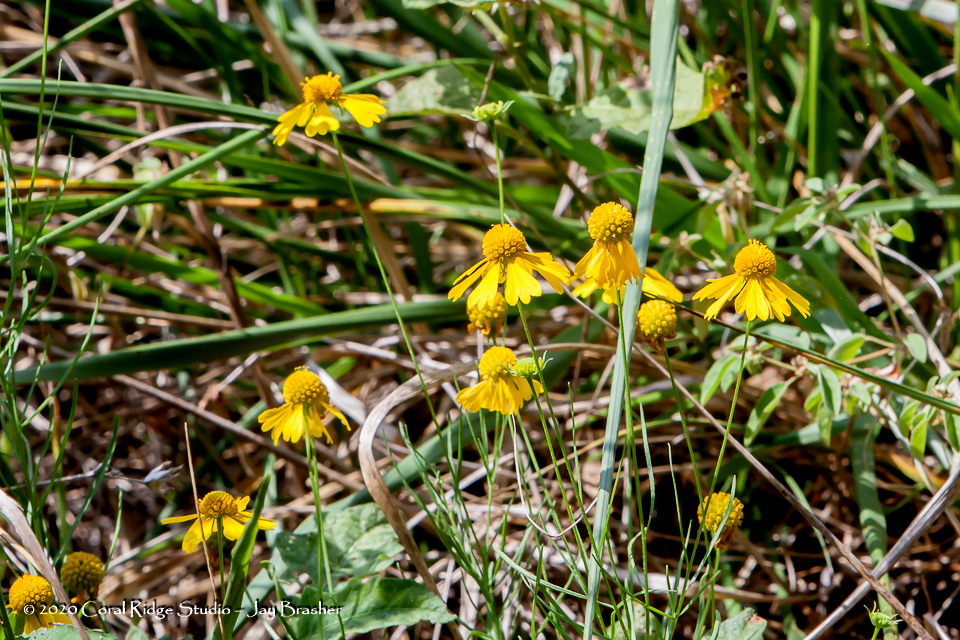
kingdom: Plantae
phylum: Tracheophyta
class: Magnoliopsida
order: Asterales
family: Asteraceae
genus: Helenium
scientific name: Helenium amarum
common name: Bitter sneezeweed
